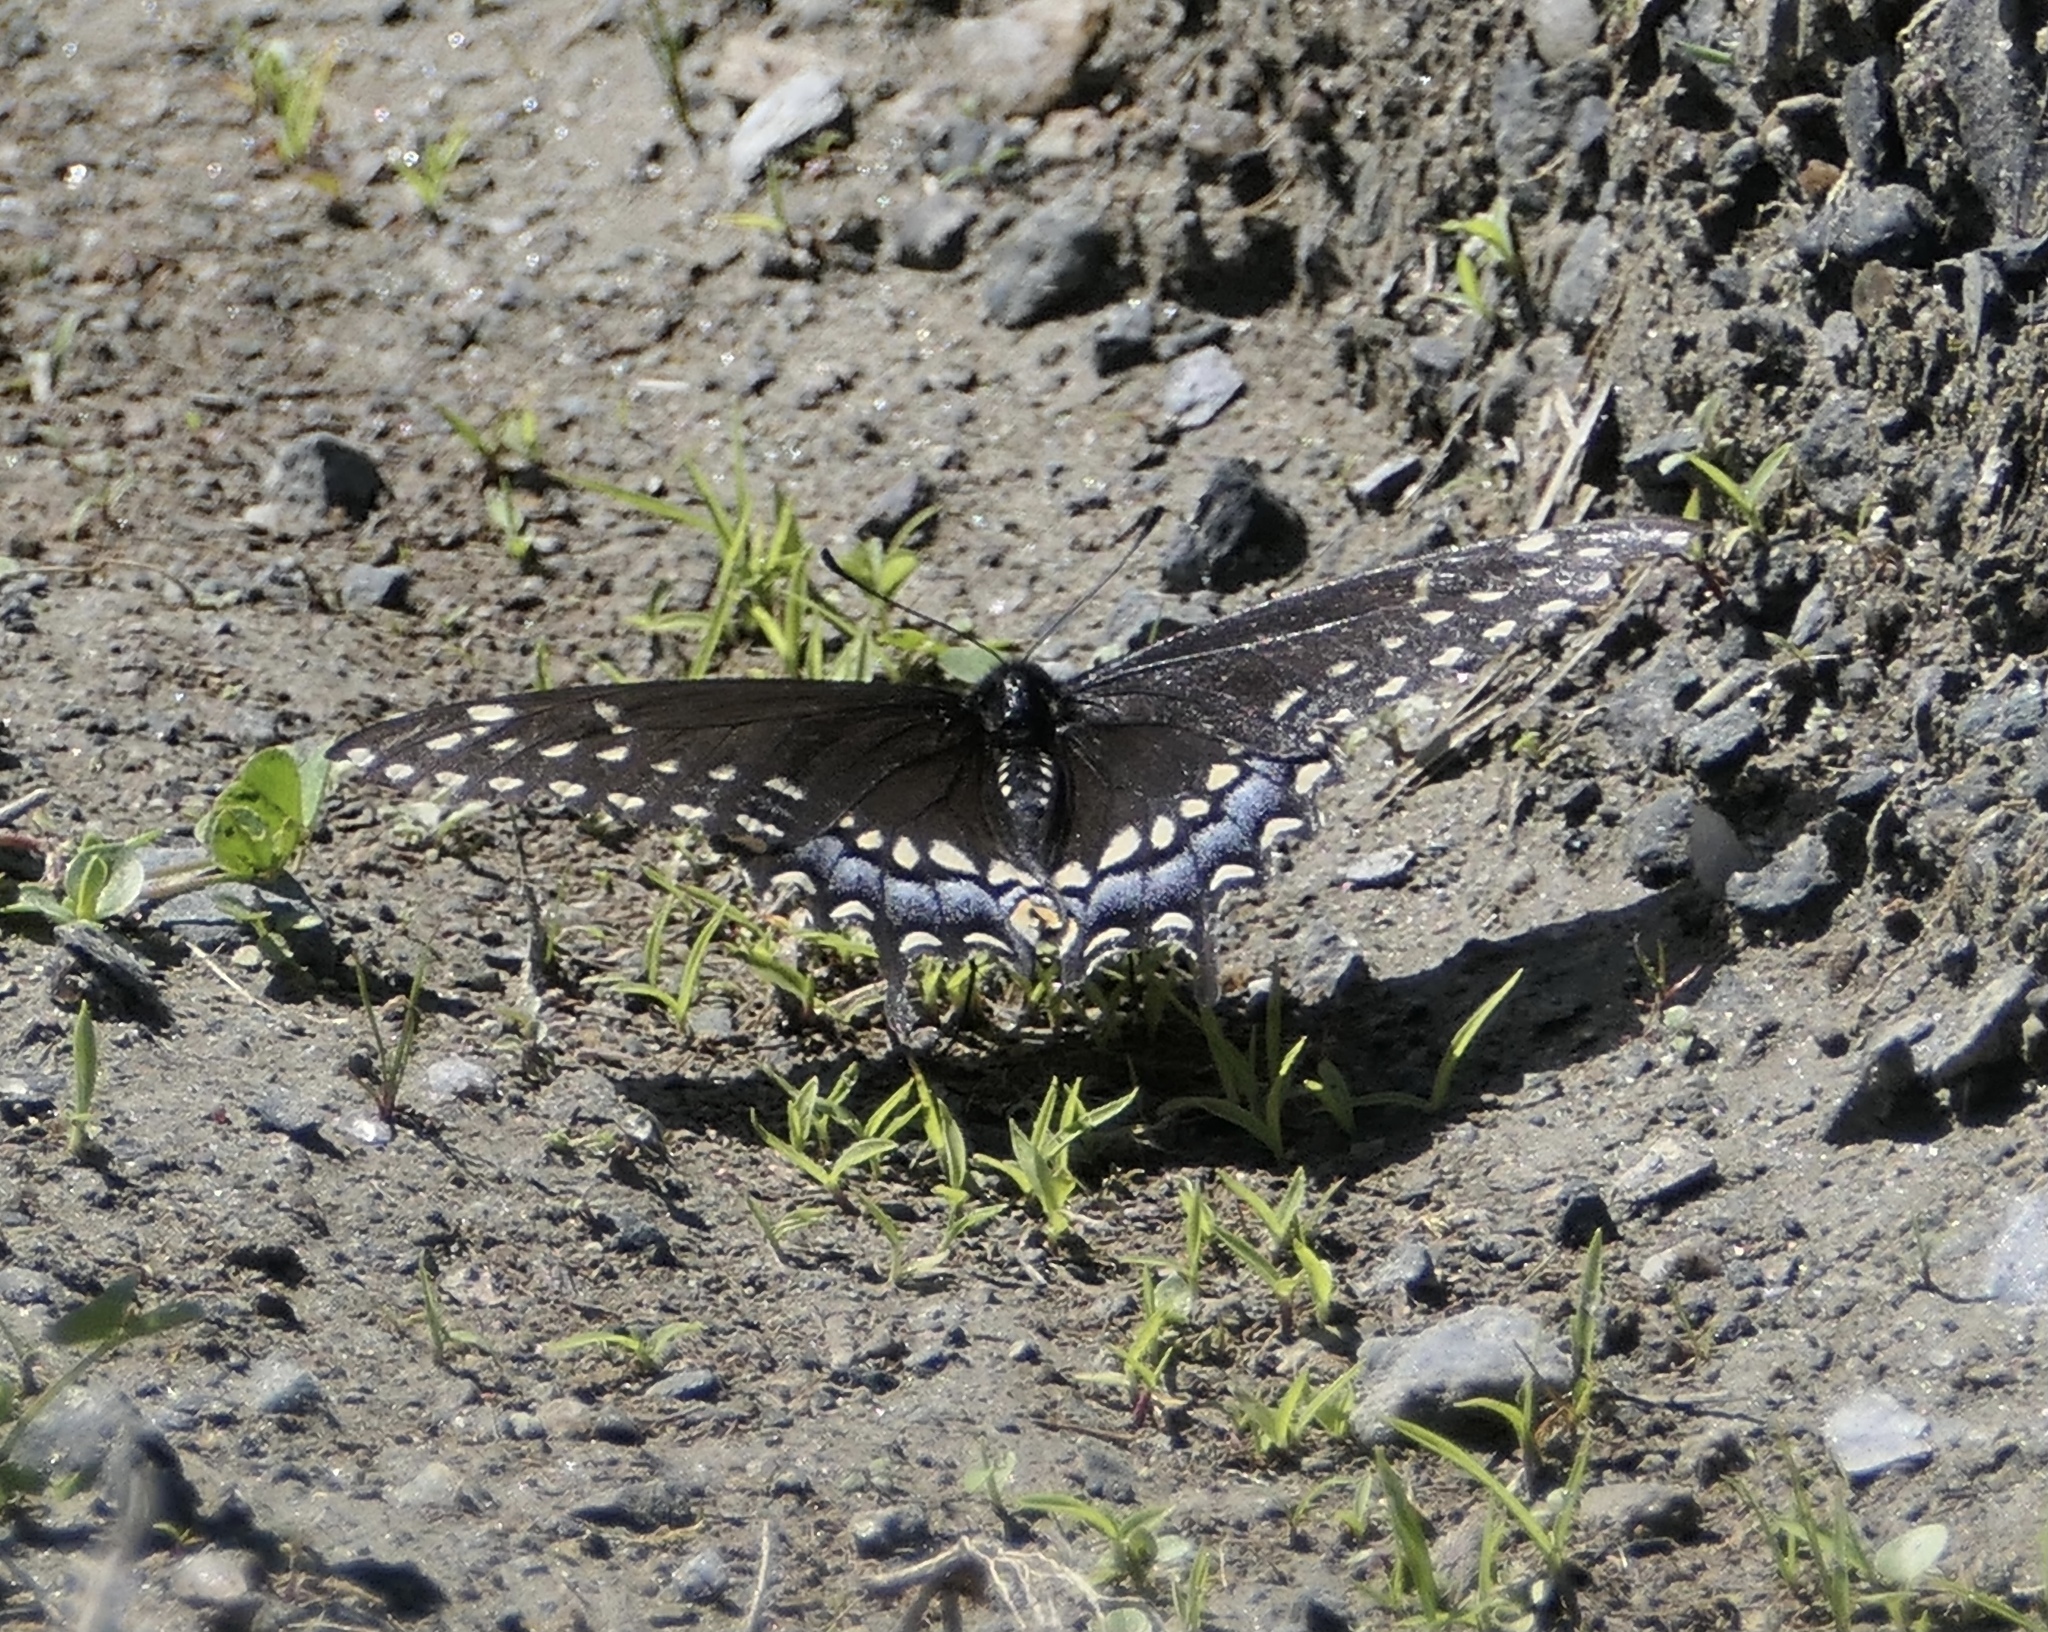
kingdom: Animalia
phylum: Arthropoda
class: Insecta
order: Lepidoptera
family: Papilionidae
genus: Papilio
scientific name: Papilio polyxenes
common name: Black swallowtail
